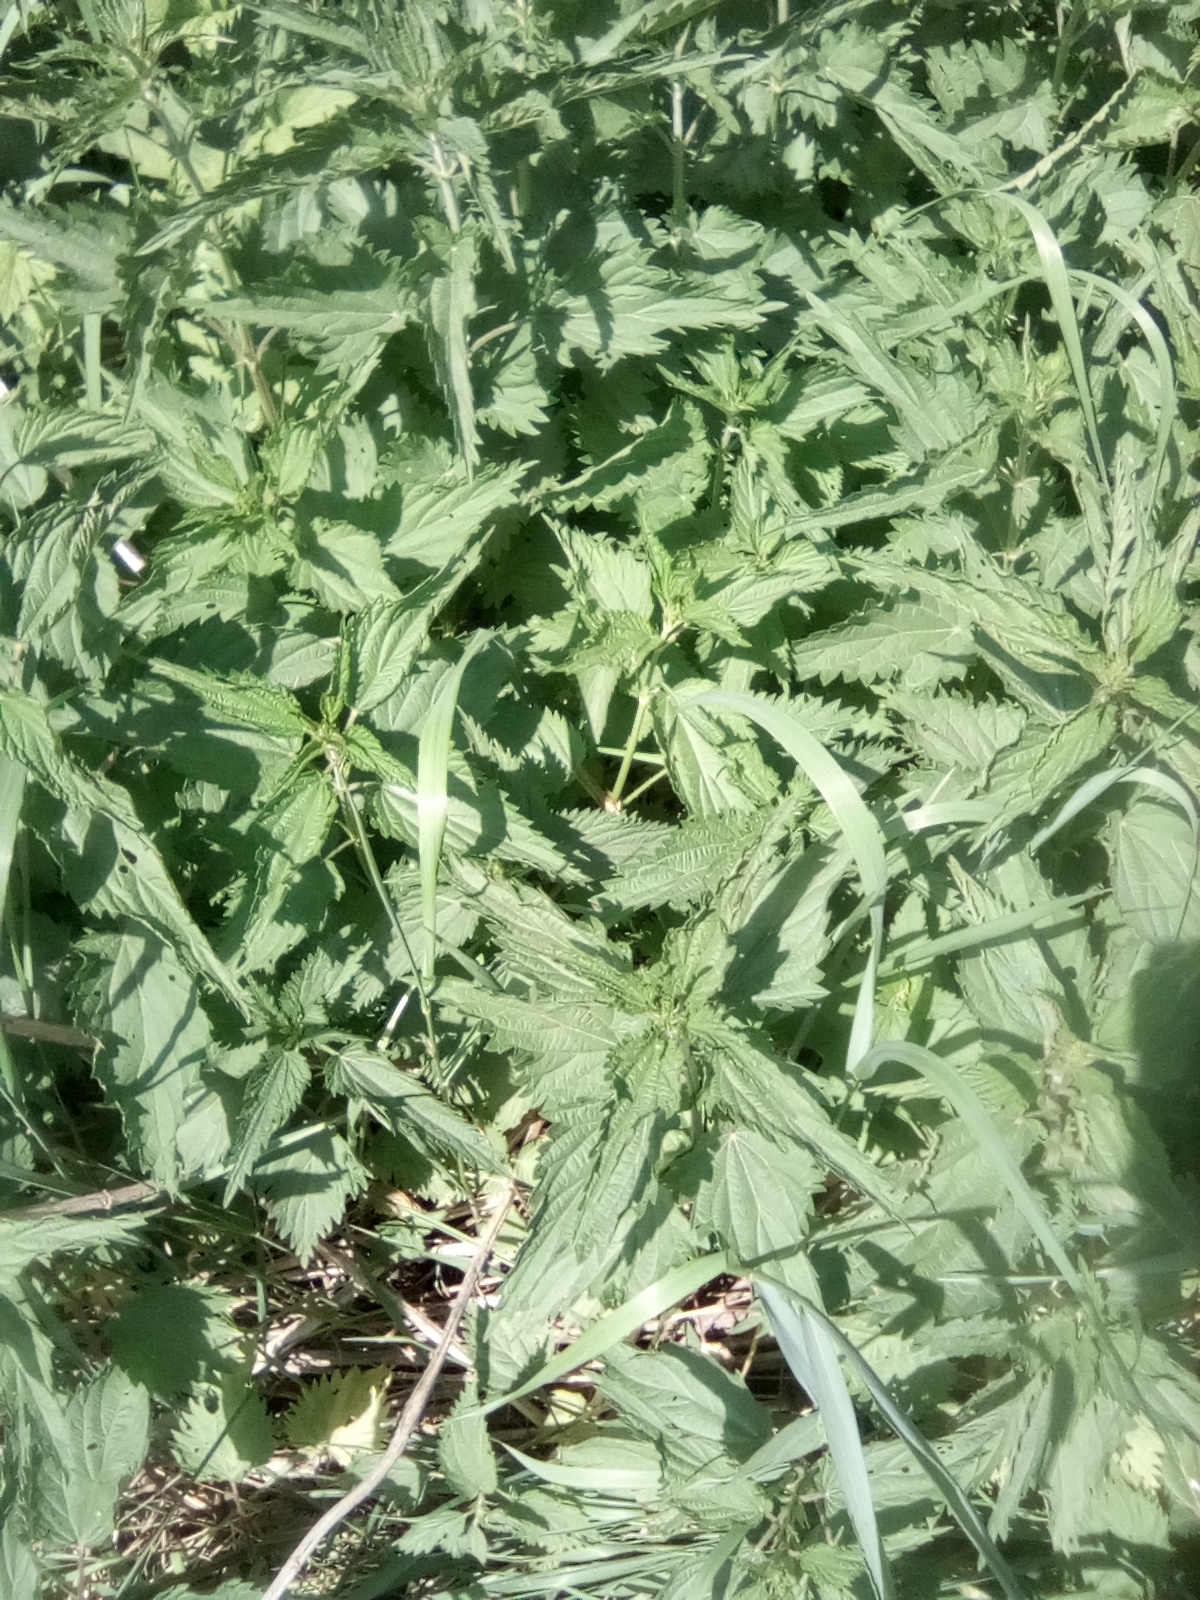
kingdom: Plantae
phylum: Tracheophyta
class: Magnoliopsida
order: Rosales
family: Urticaceae
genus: Urtica
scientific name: Urtica dioica
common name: Common nettle
